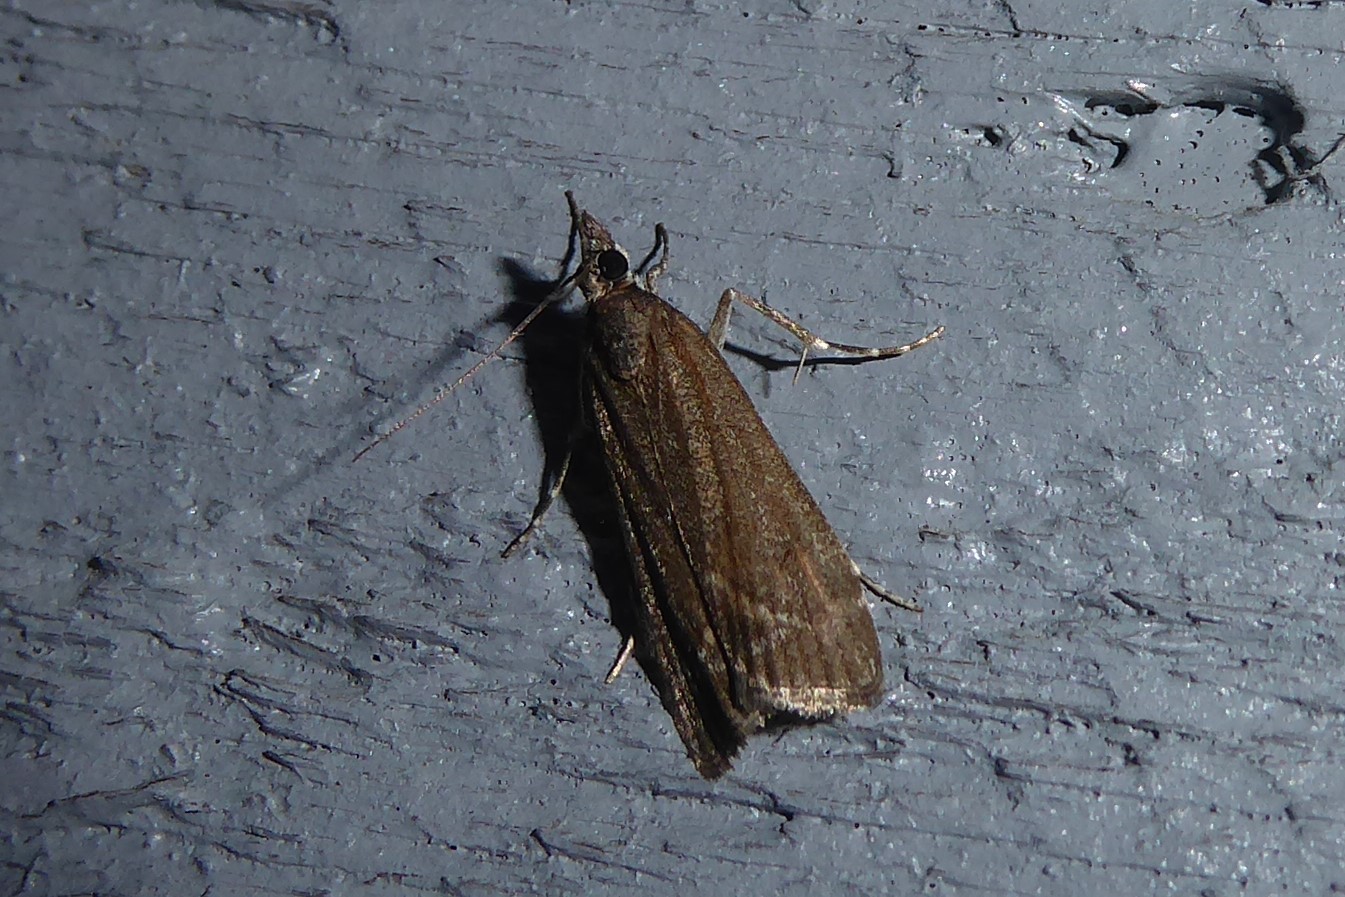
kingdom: Animalia
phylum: Arthropoda
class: Insecta
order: Lepidoptera
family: Crambidae
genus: Eudonia
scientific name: Eudonia submarginalis
